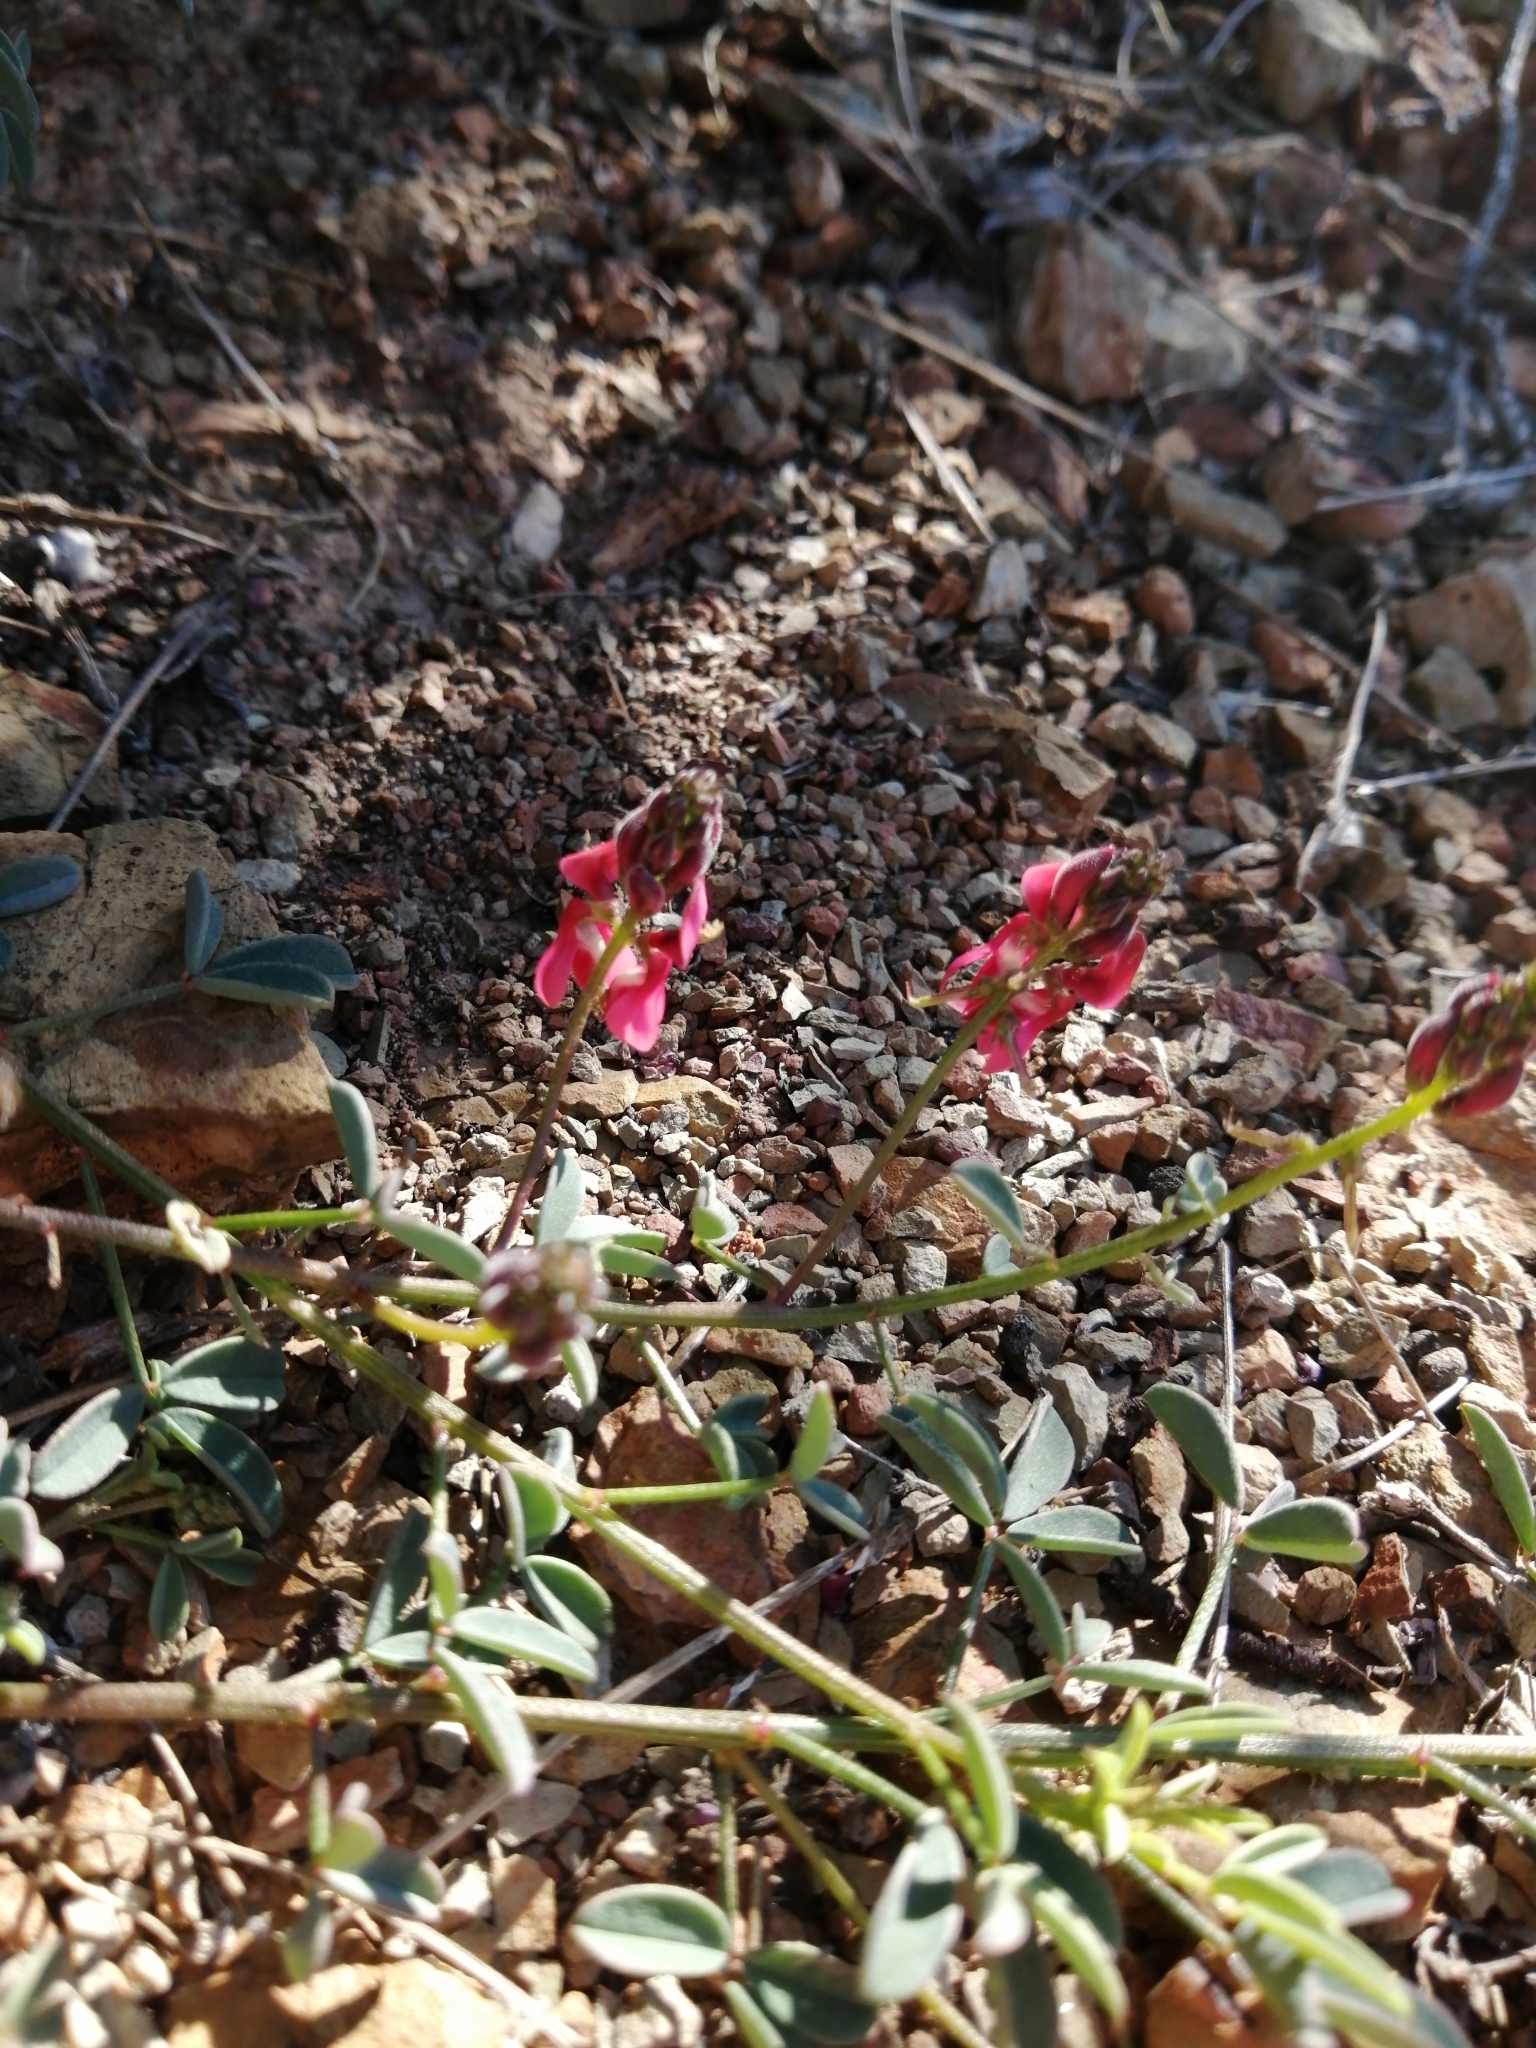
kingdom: Plantae
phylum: Tracheophyta
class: Magnoliopsida
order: Fabales
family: Fabaceae
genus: Indigofera
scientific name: Indigofera heterophylla
